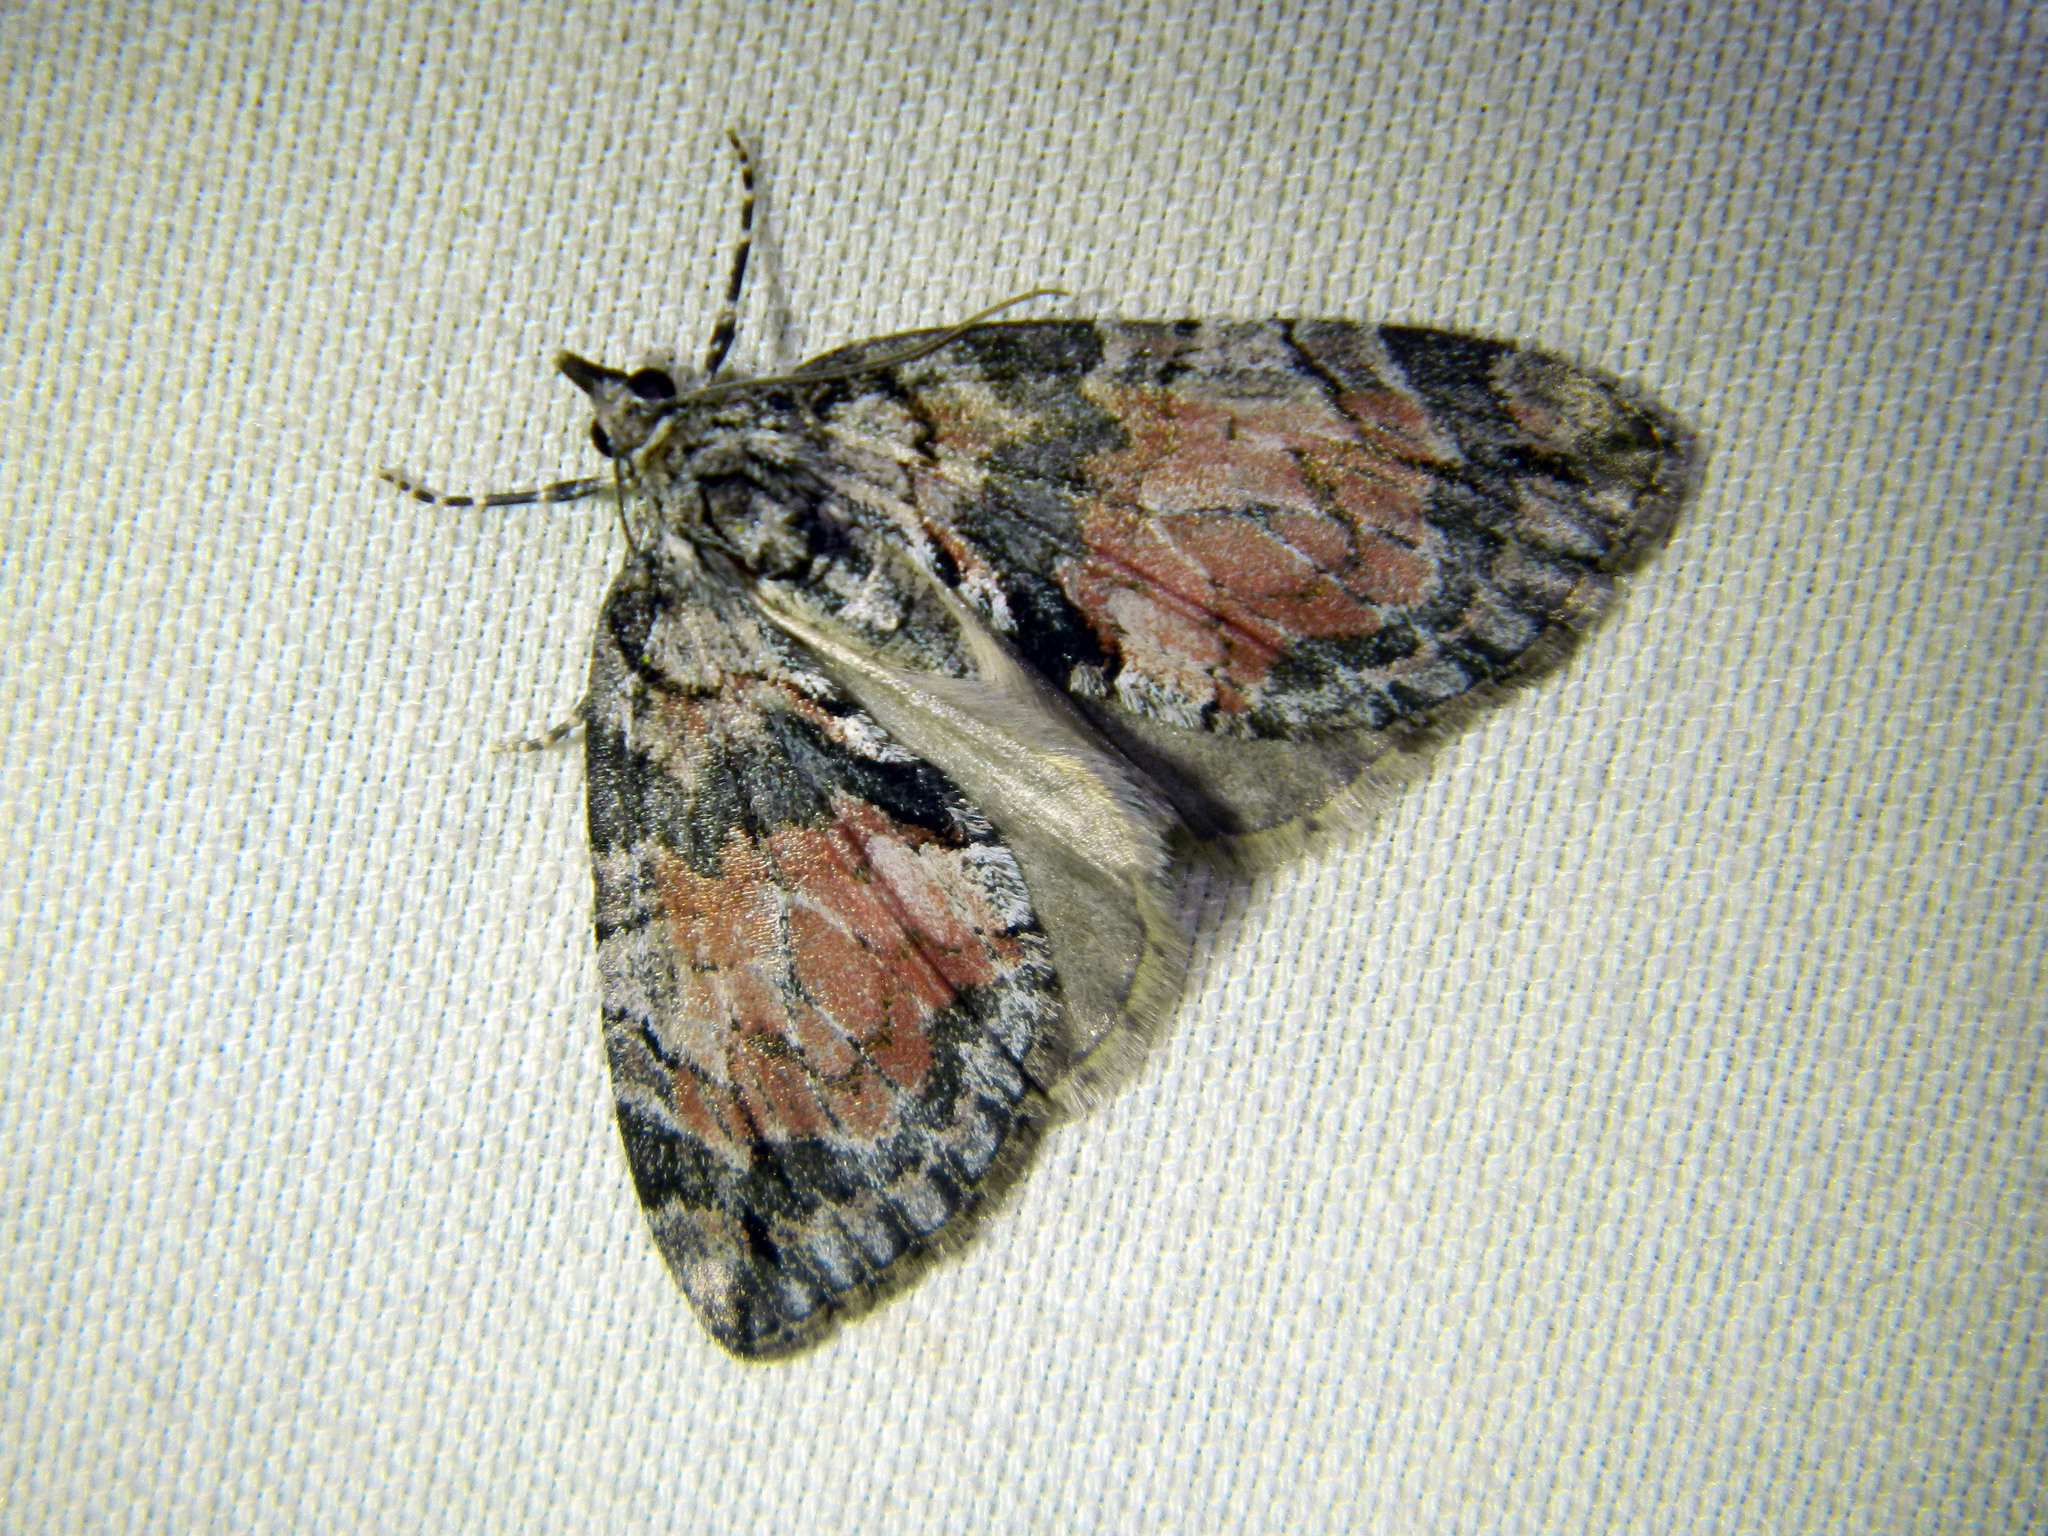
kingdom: Animalia
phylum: Arthropoda
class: Insecta
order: Lepidoptera
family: Geometridae
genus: Hydriomena
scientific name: Hydriomena perfracta
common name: Shattered hydriomena moth
